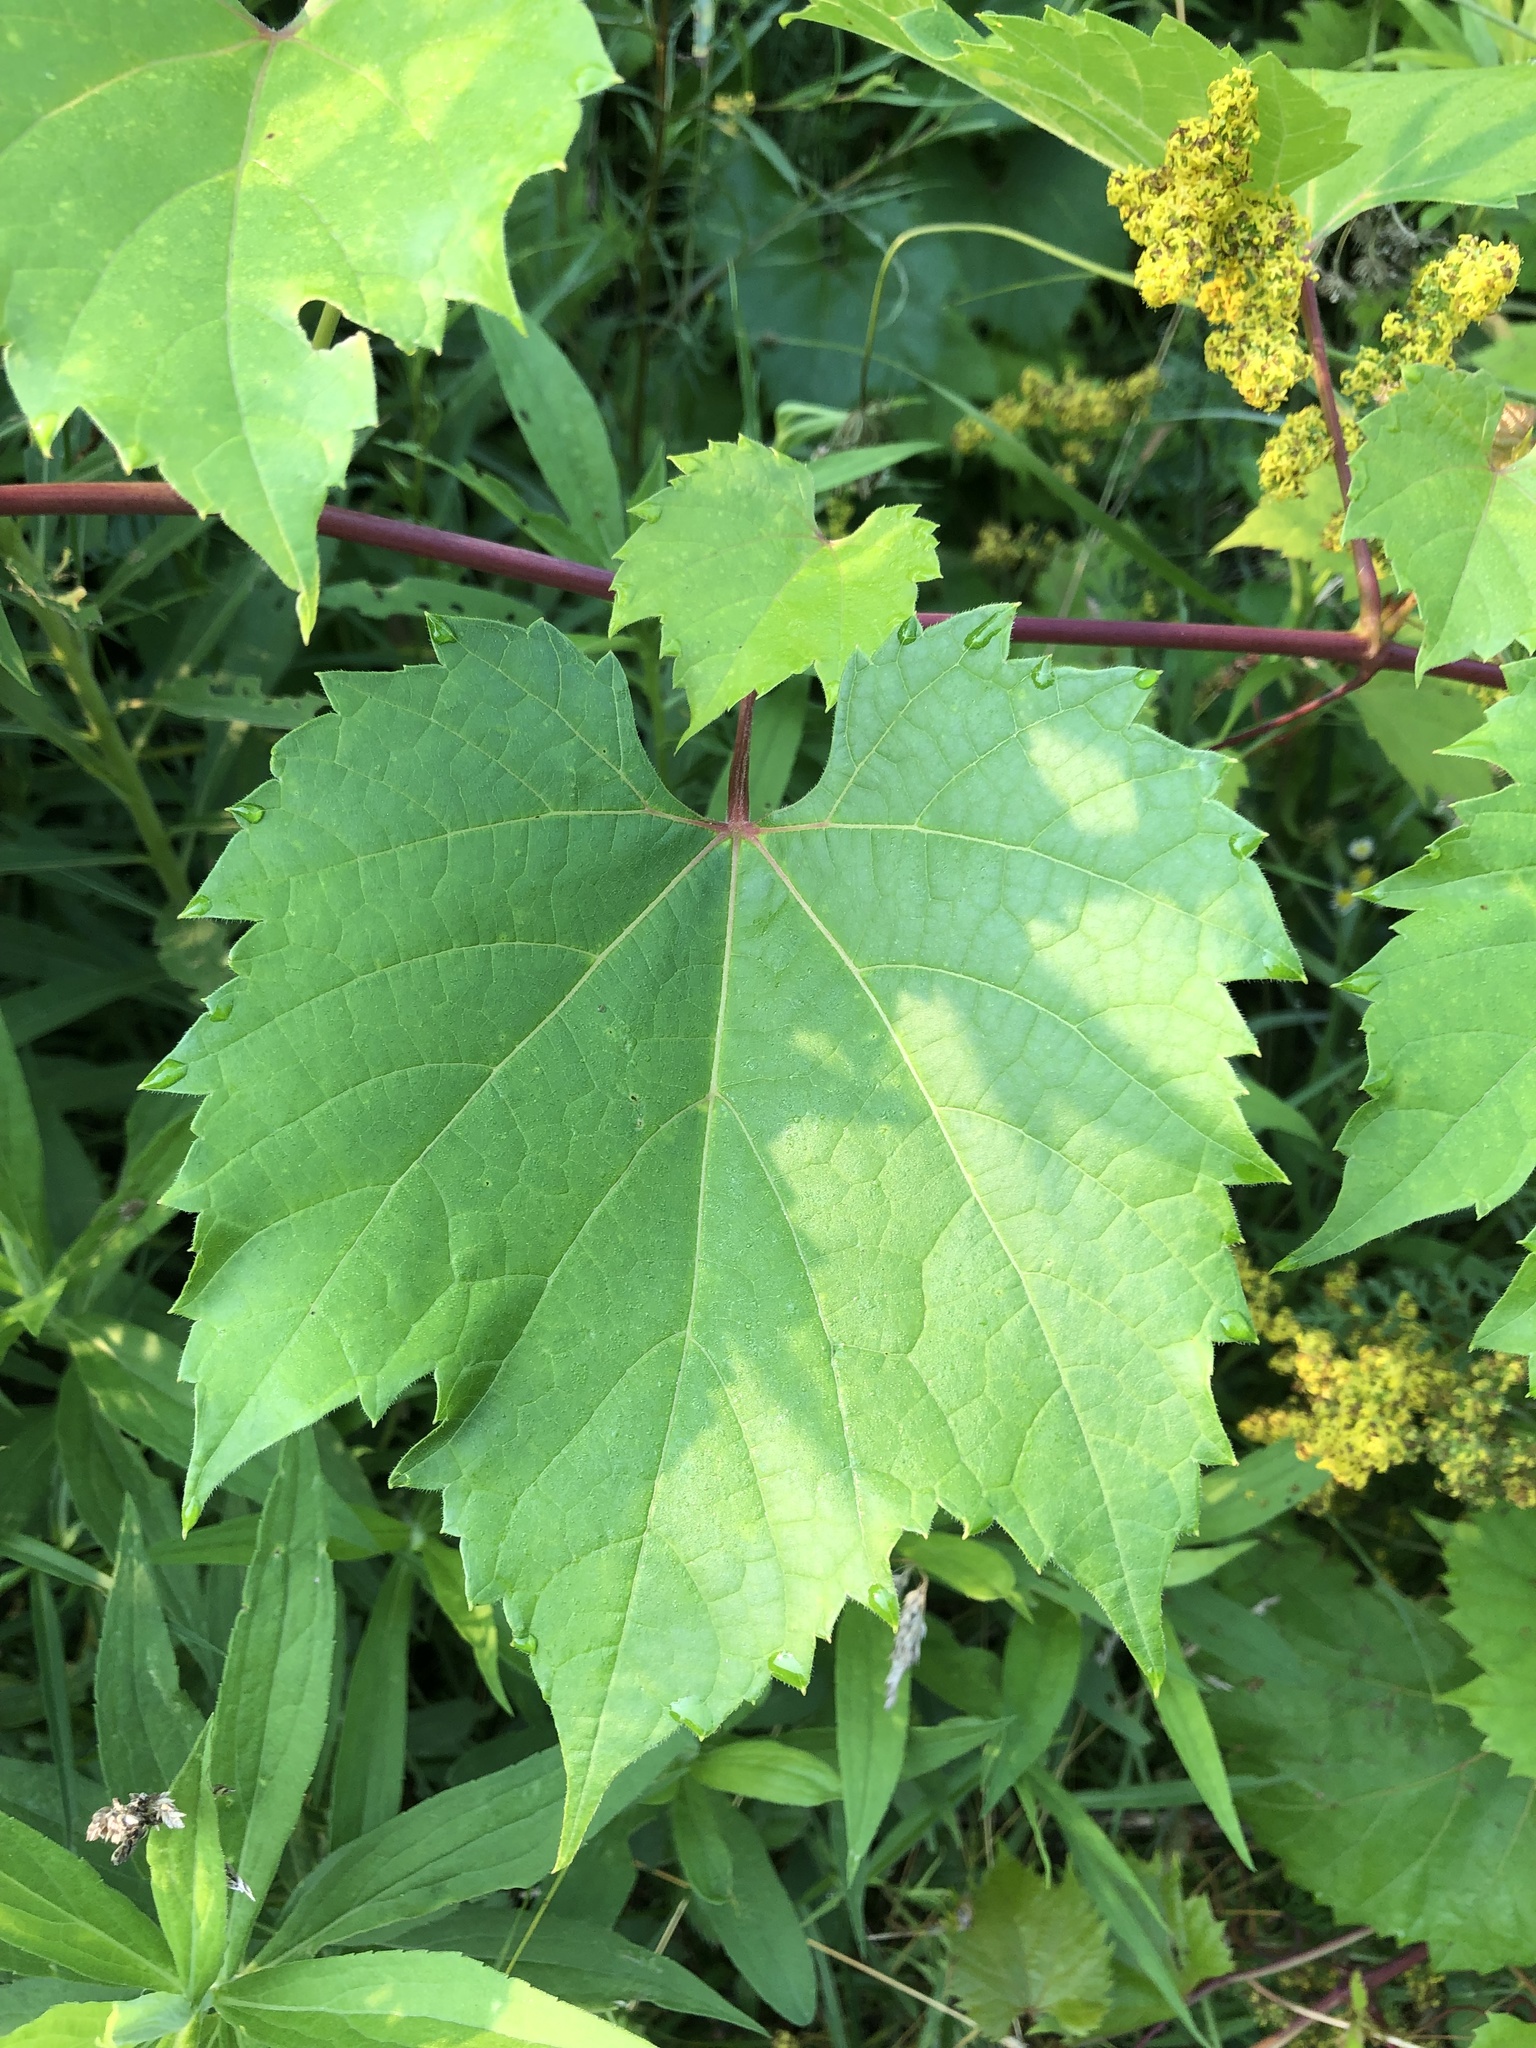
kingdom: Plantae
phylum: Tracheophyta
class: Magnoliopsida
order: Vitales
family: Vitaceae
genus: Vitis
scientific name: Vitis riparia
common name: Frost grape
